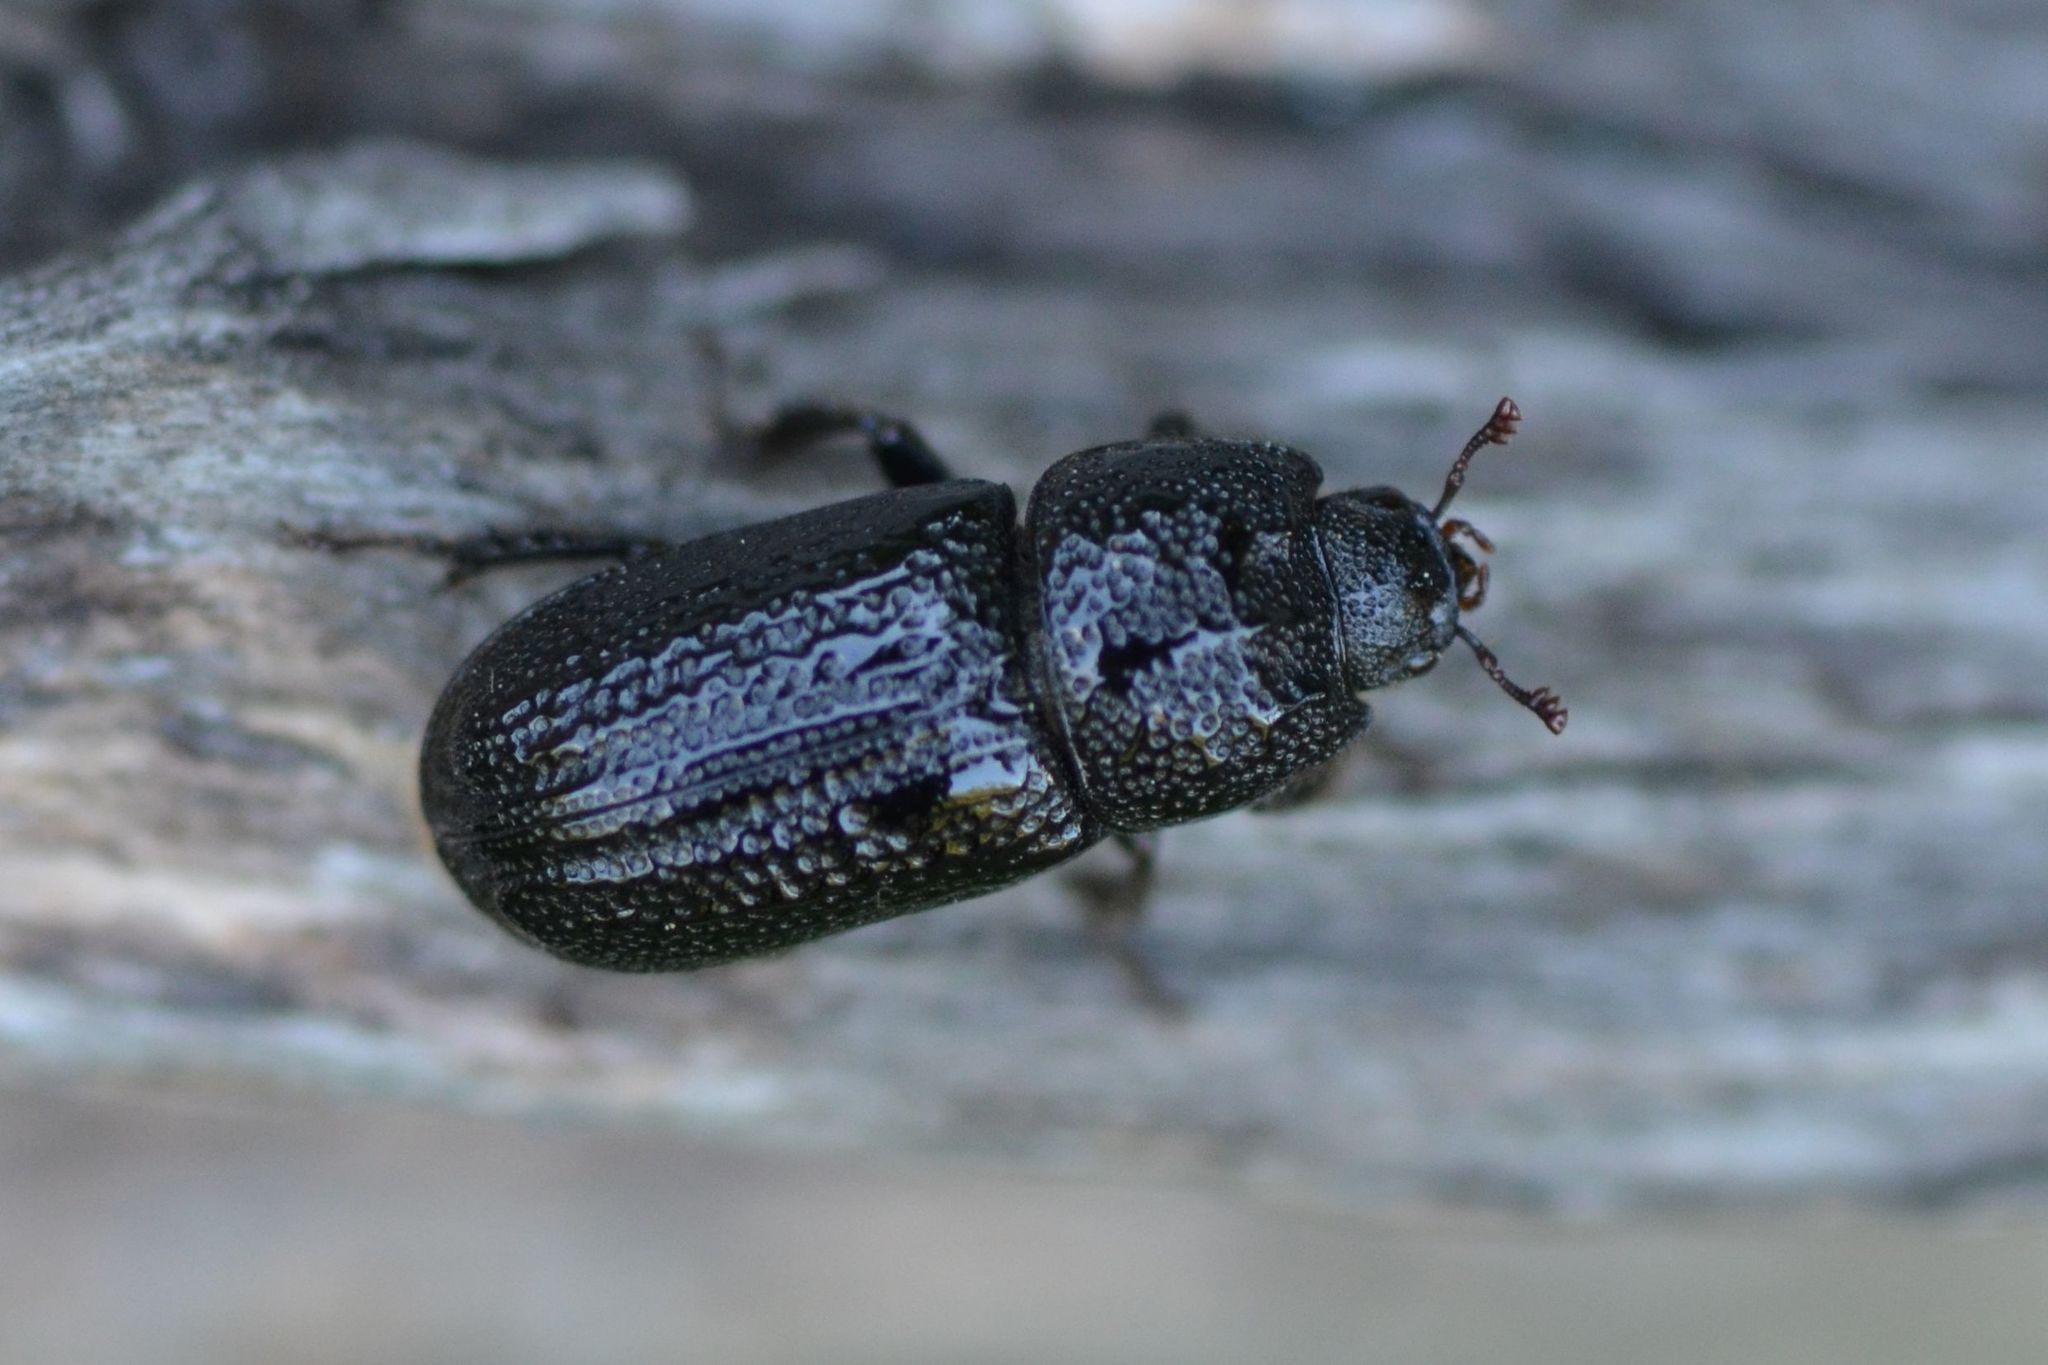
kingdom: Animalia
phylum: Arthropoda
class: Insecta
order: Coleoptera
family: Lucanidae
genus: Sinodendron
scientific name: Sinodendron cylindricum
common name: Rhinoceros beetle
